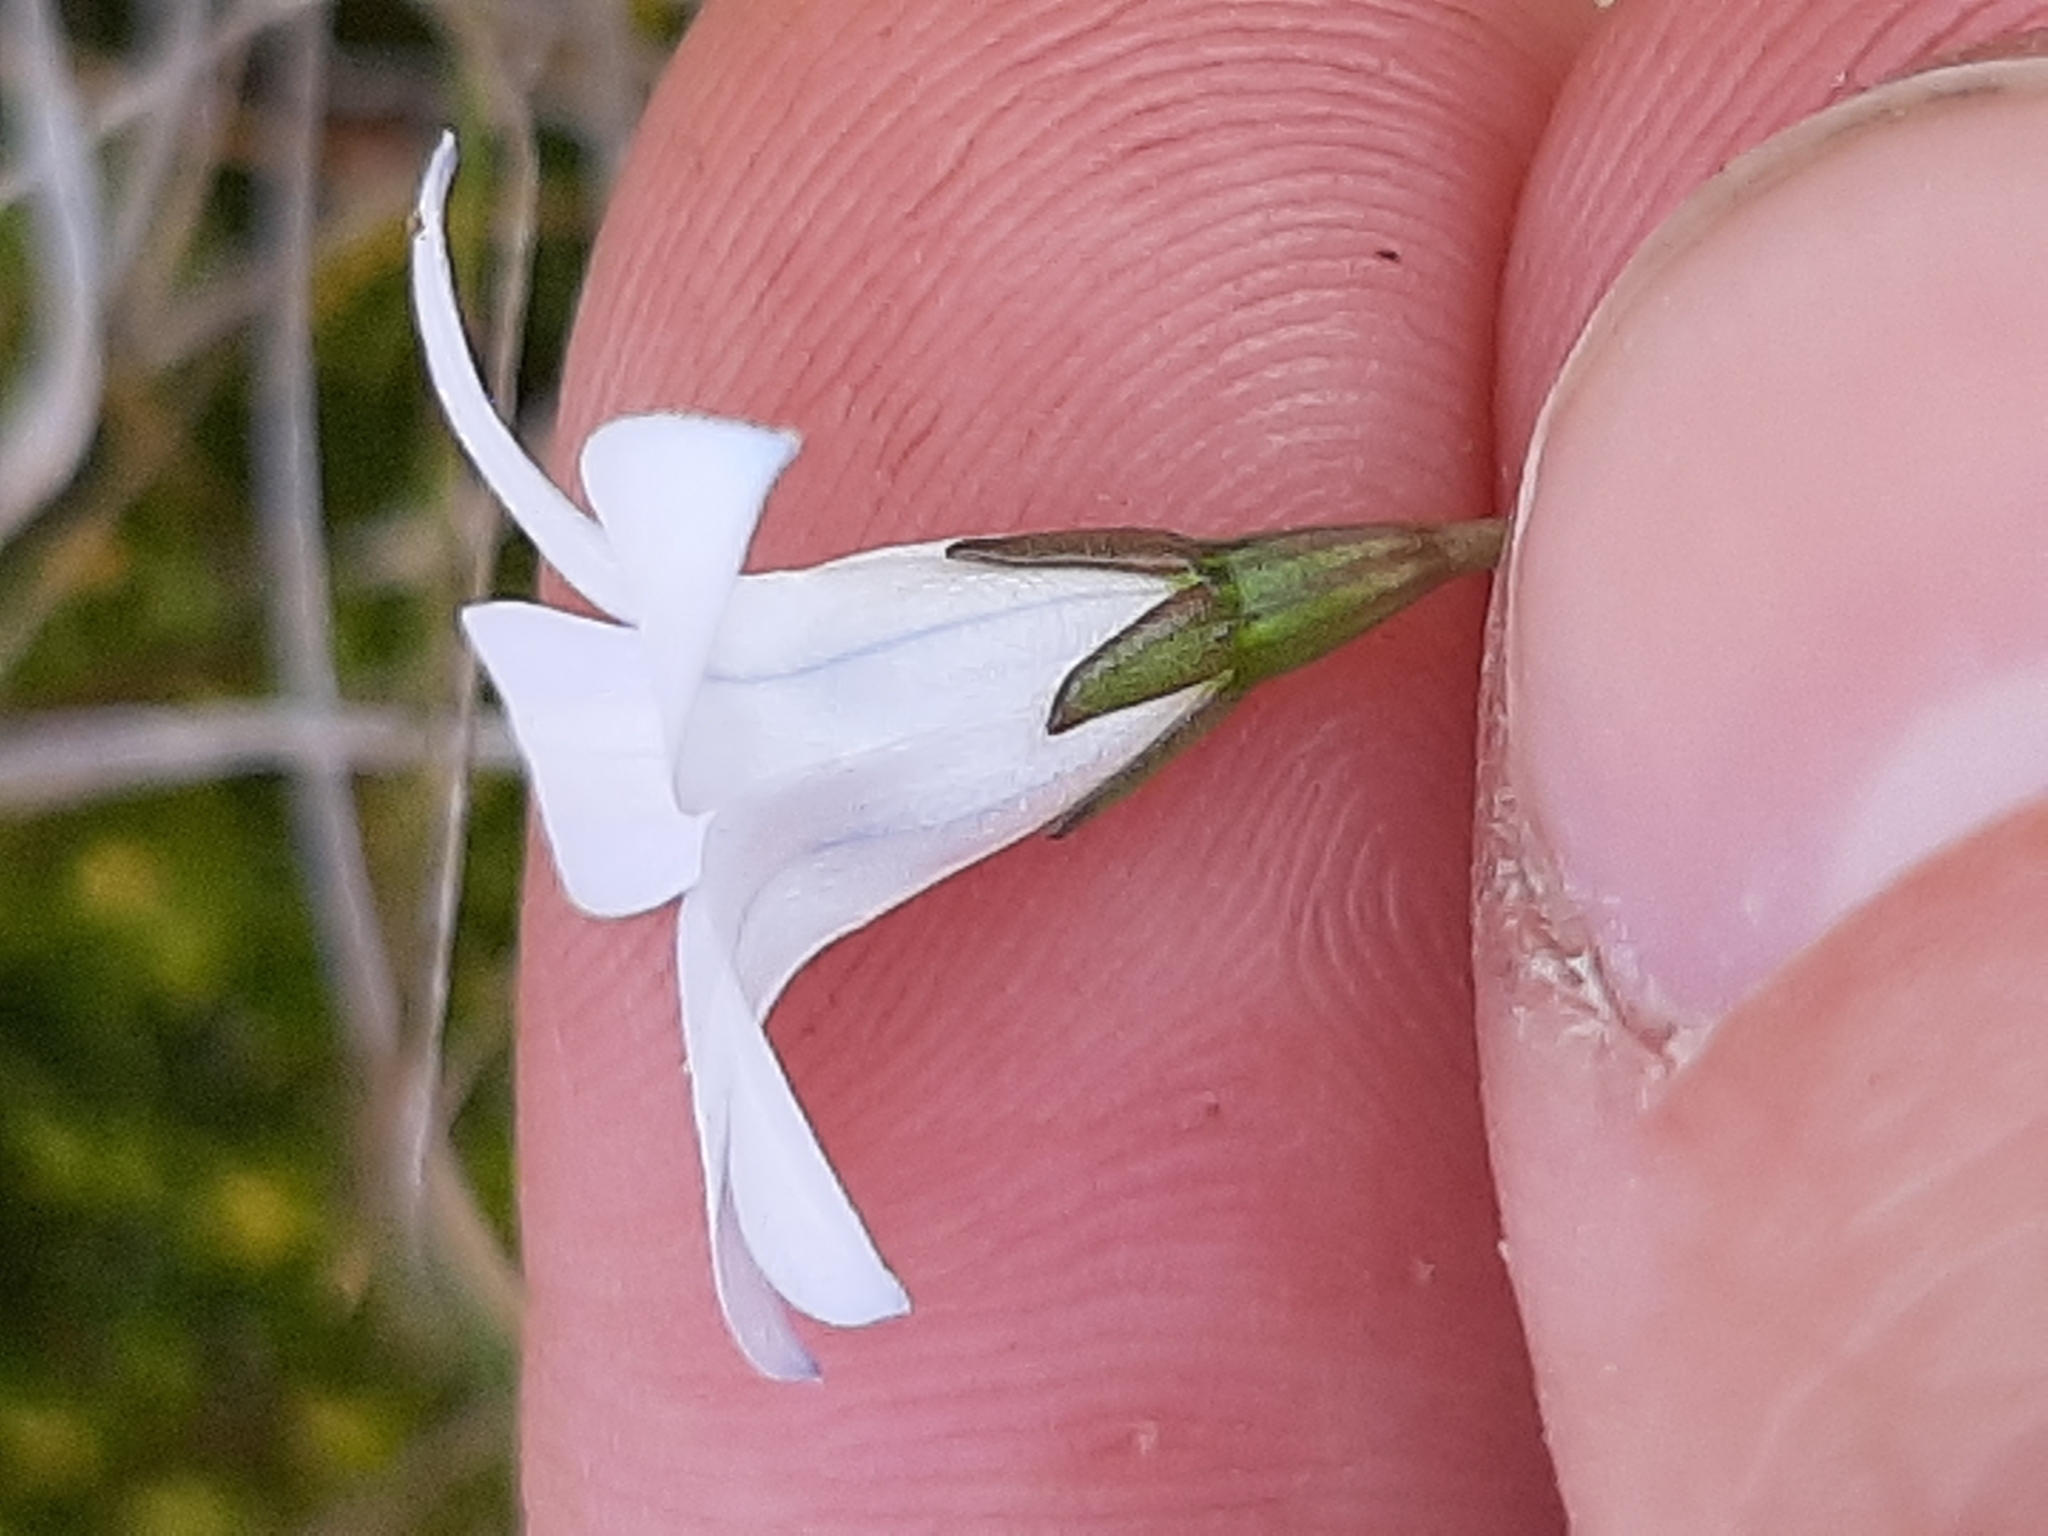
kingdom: Plantae
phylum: Tracheophyta
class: Magnoliopsida
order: Asterales
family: Campanulaceae
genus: Wahlenbergia
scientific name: Wahlenbergia albomarginata
